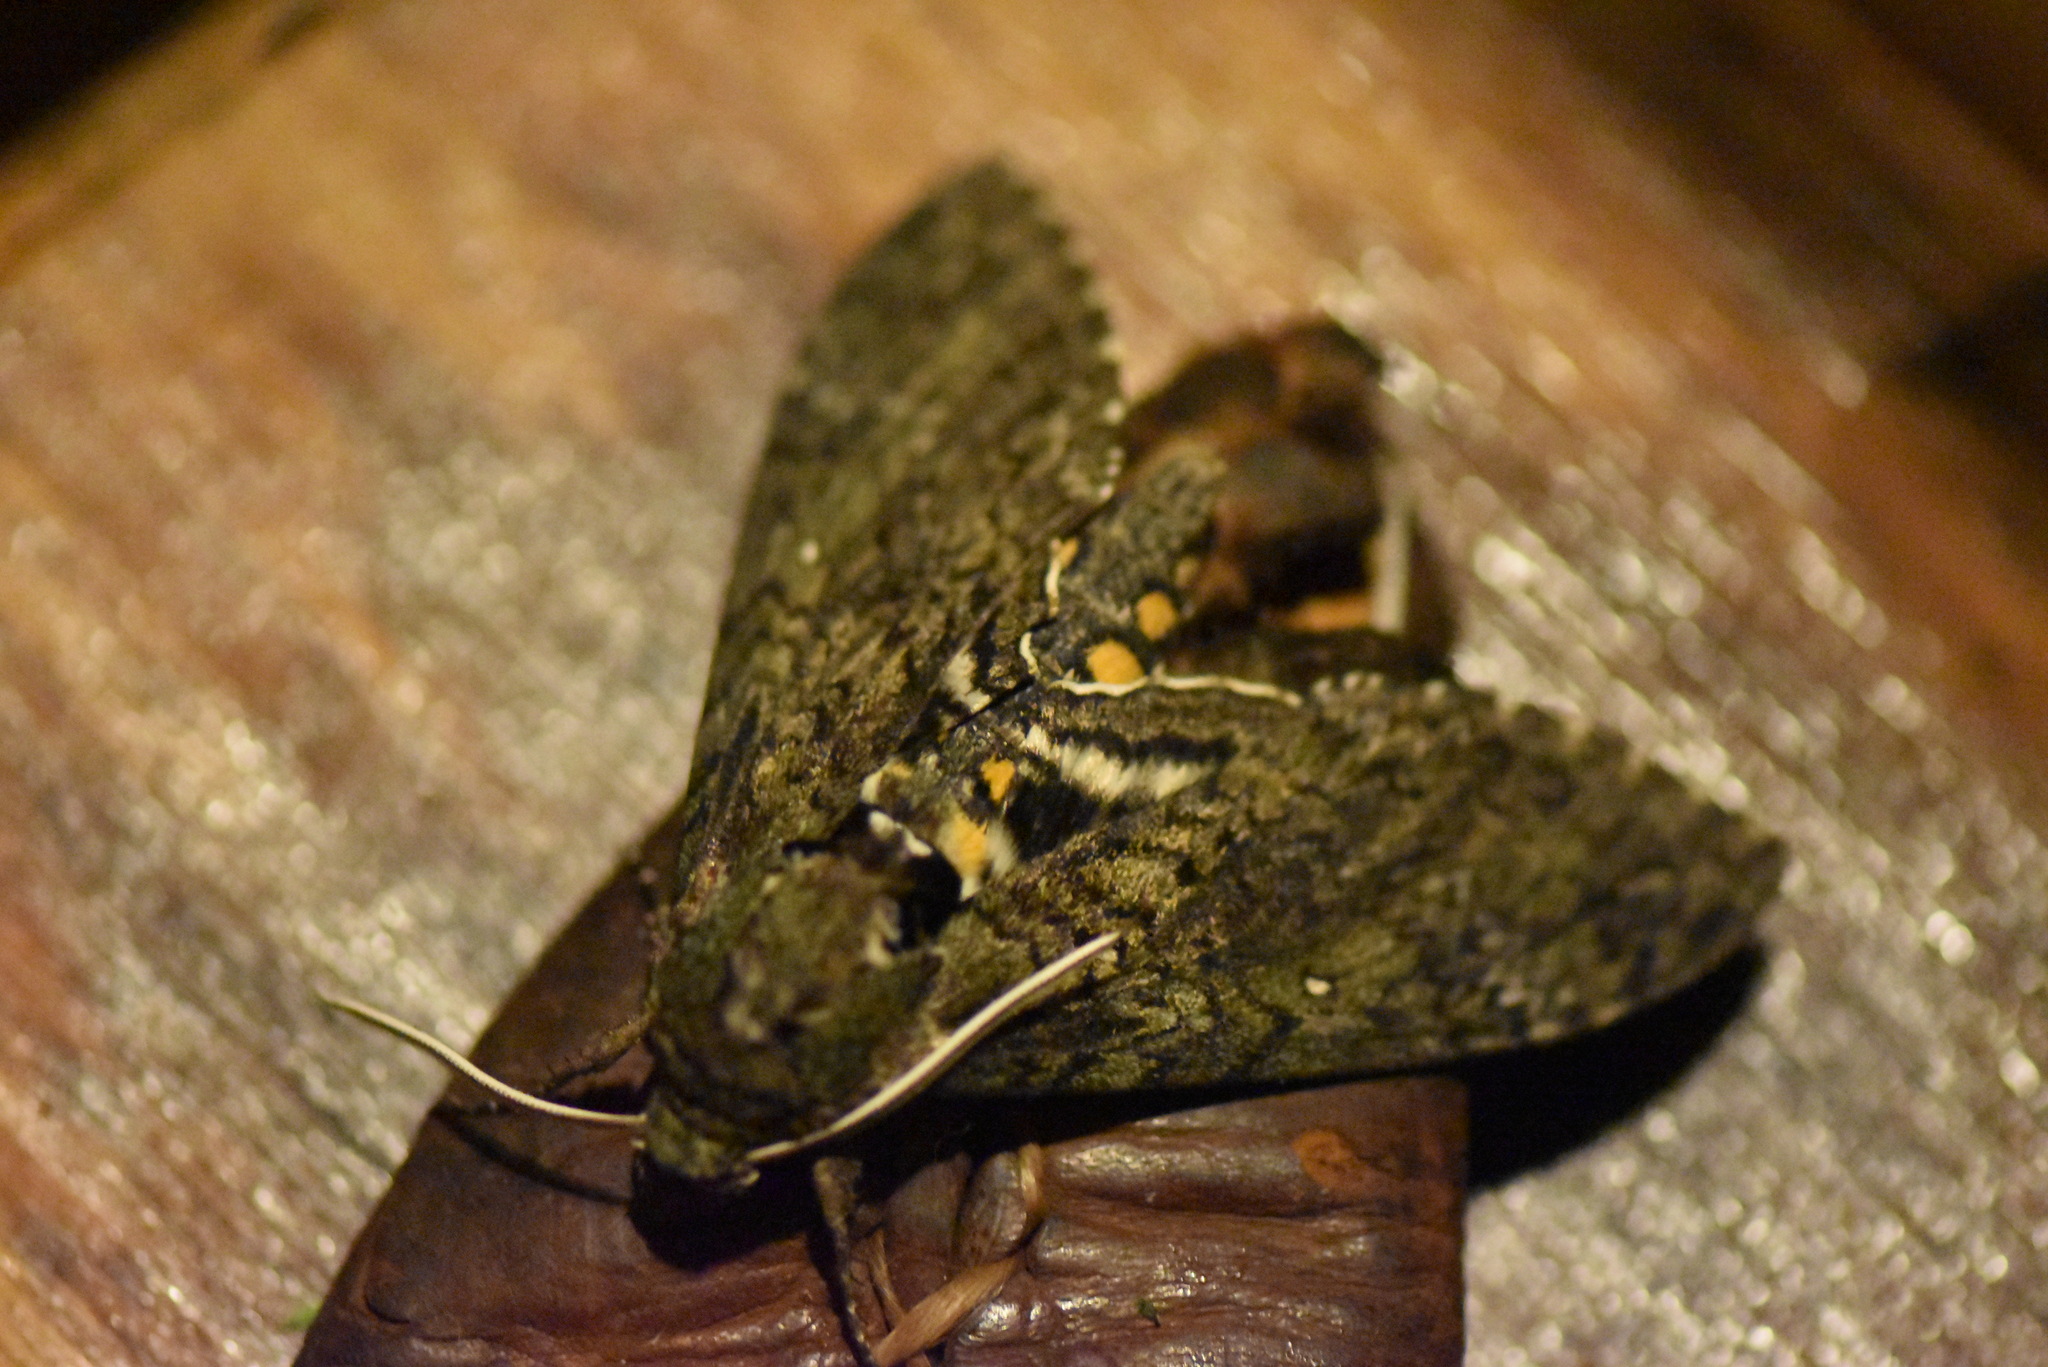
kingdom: Animalia
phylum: Arthropoda
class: Insecta
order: Lepidoptera
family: Sphingidae
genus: Manduca
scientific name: Manduca afflicta
